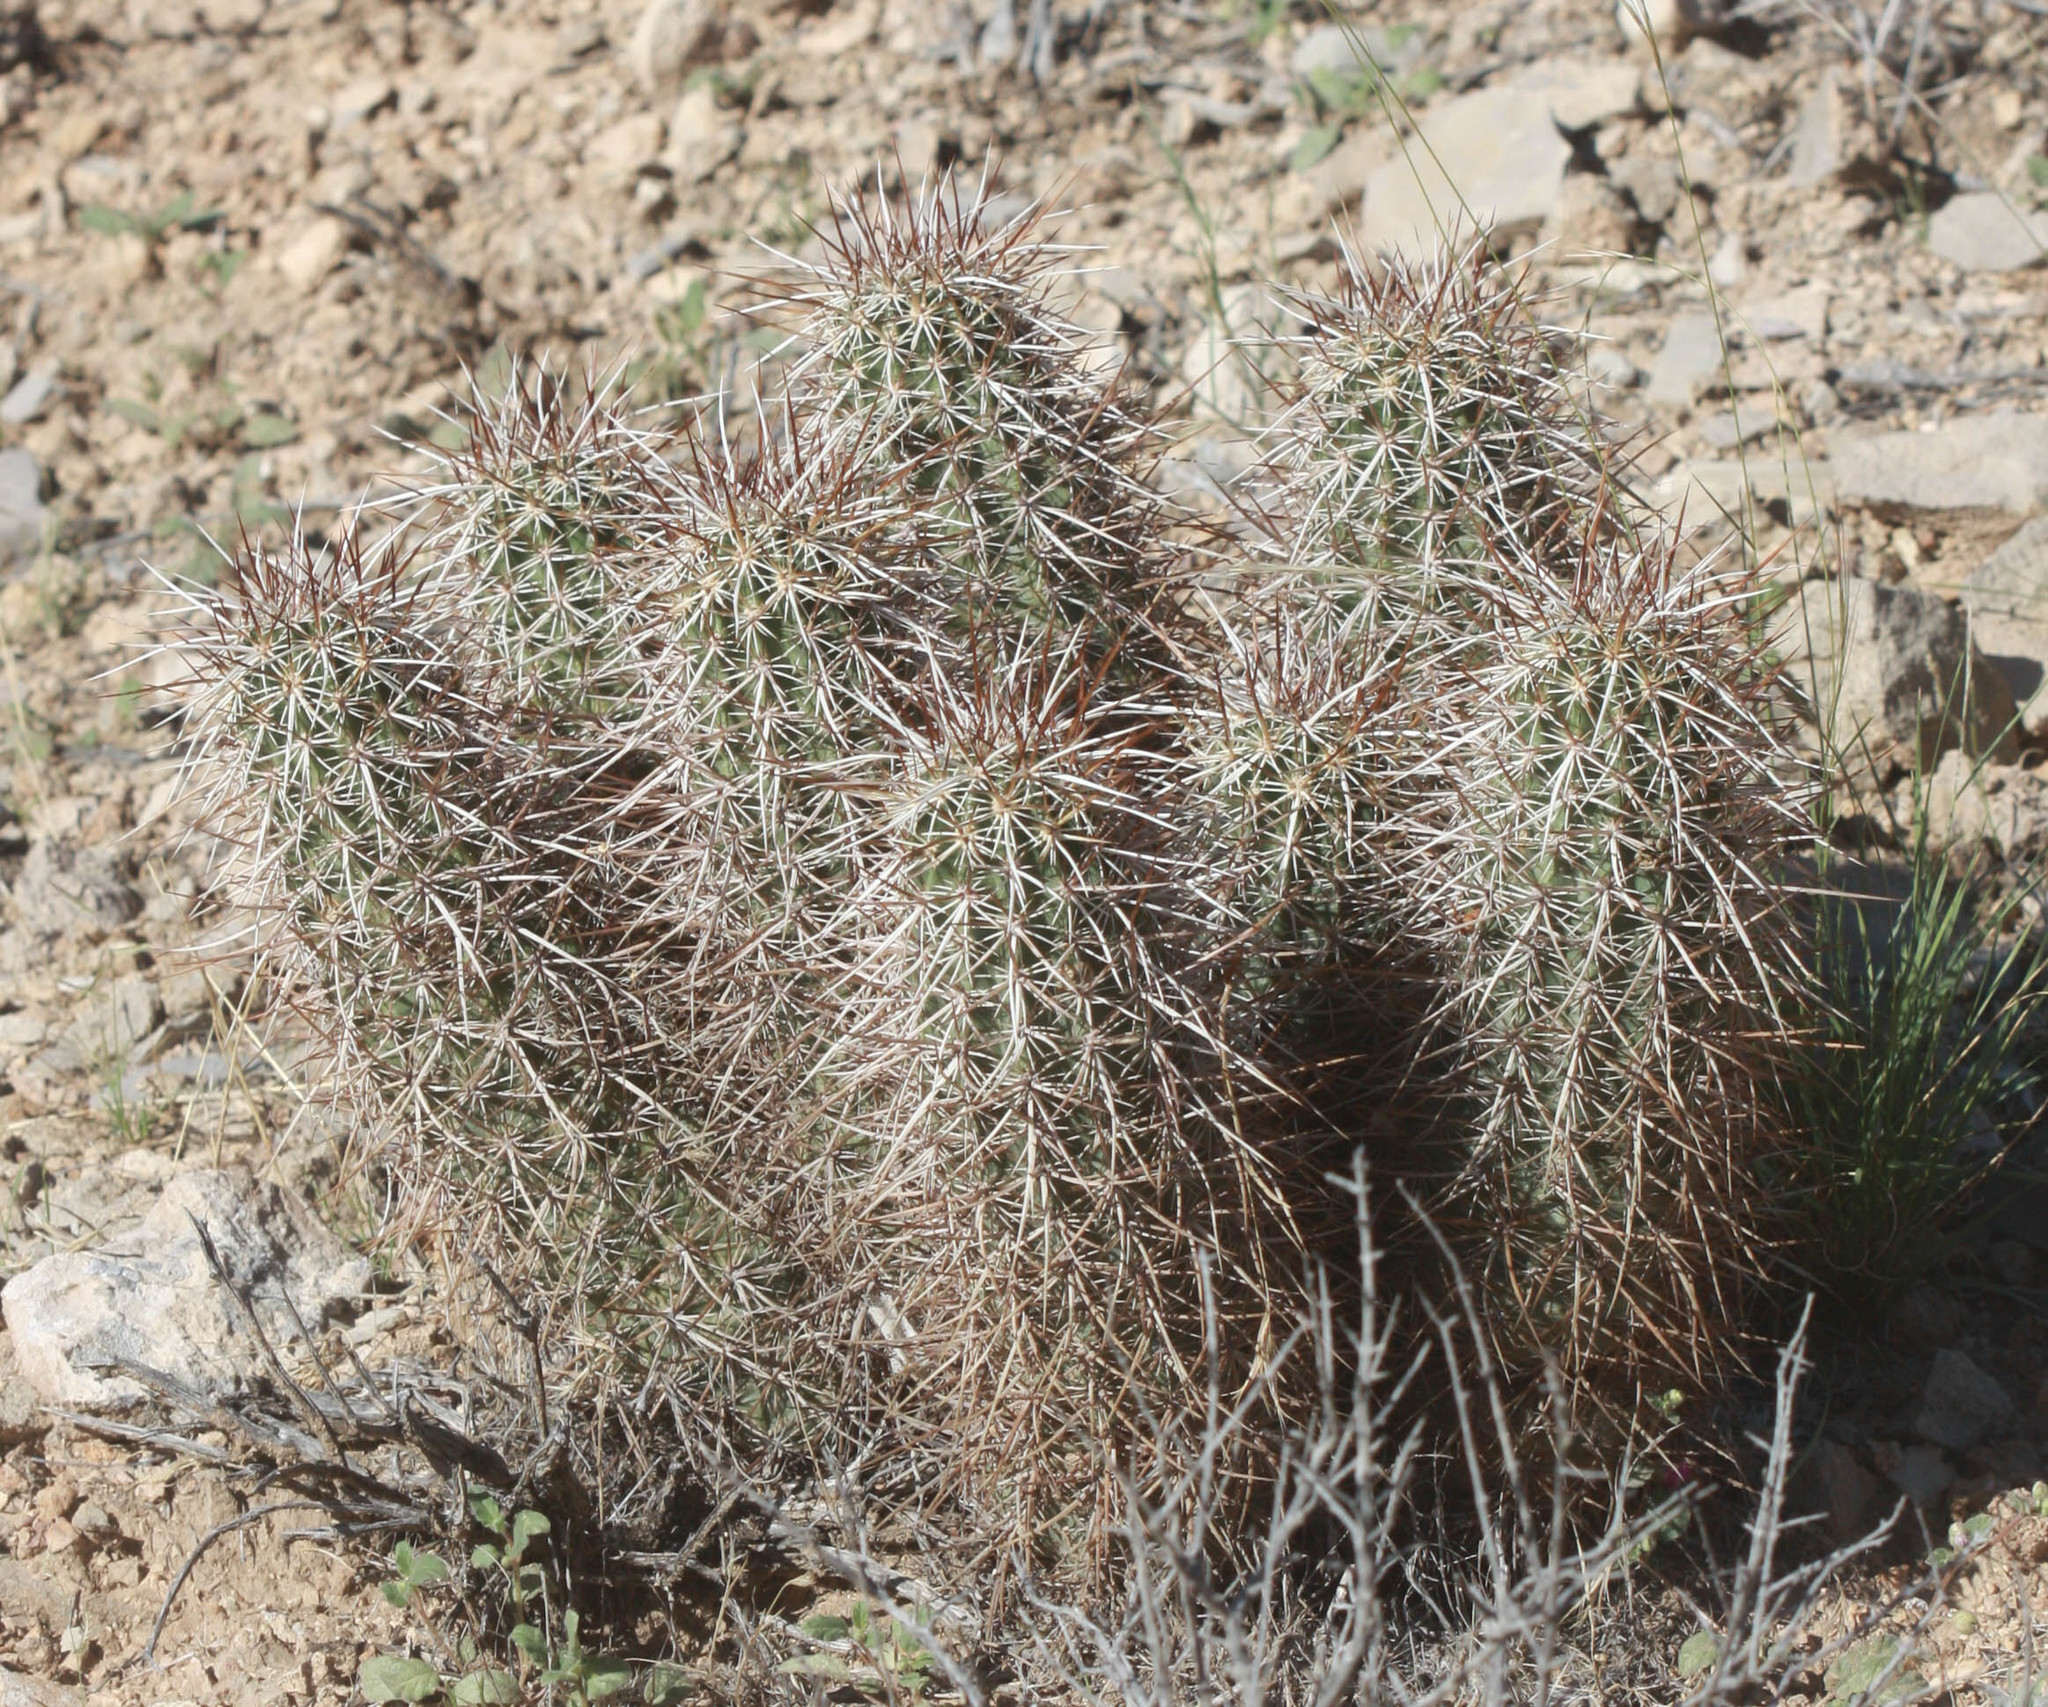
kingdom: Plantae
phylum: Tracheophyta
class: Magnoliopsida
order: Caryophyllales
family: Cactaceae
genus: Echinocereus
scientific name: Echinocereus engelmannii
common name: Engelmann's hedgehog cactus
